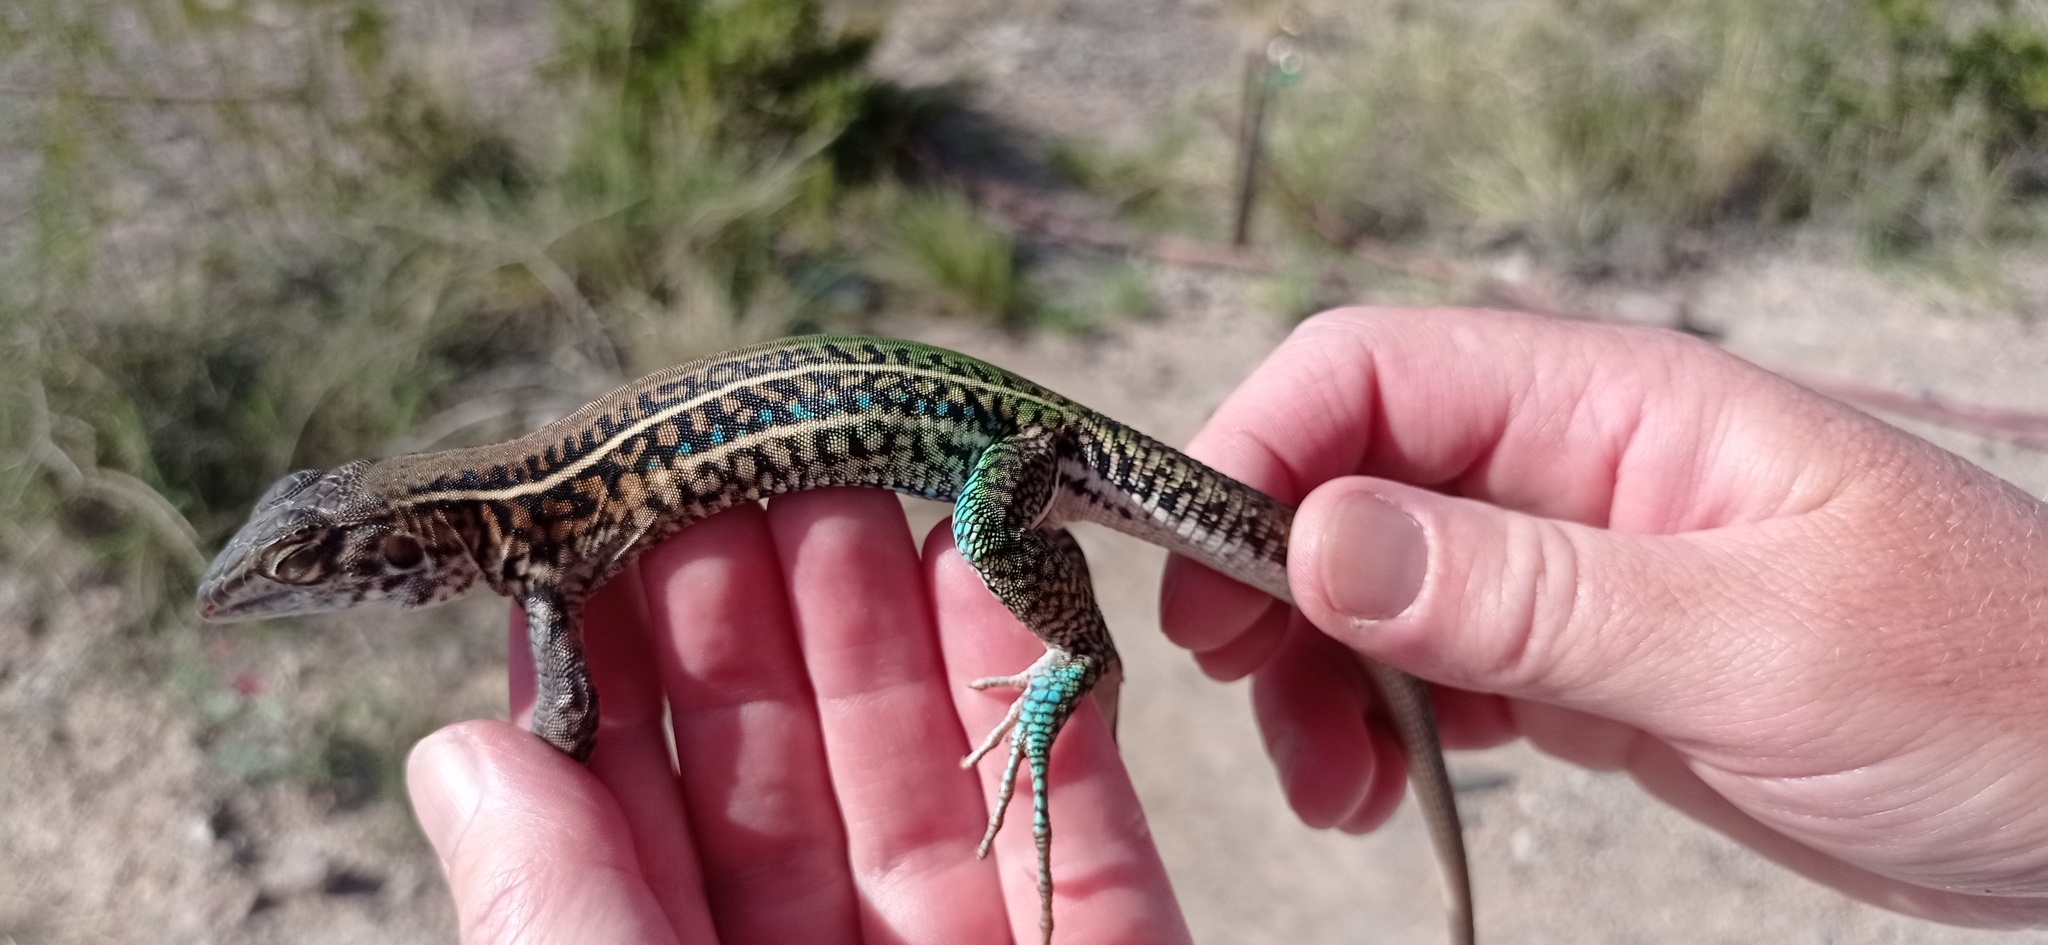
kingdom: Animalia
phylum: Chordata
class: Squamata
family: Teiidae
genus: Teius
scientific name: Teius teyou
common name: Four-toed tegu
